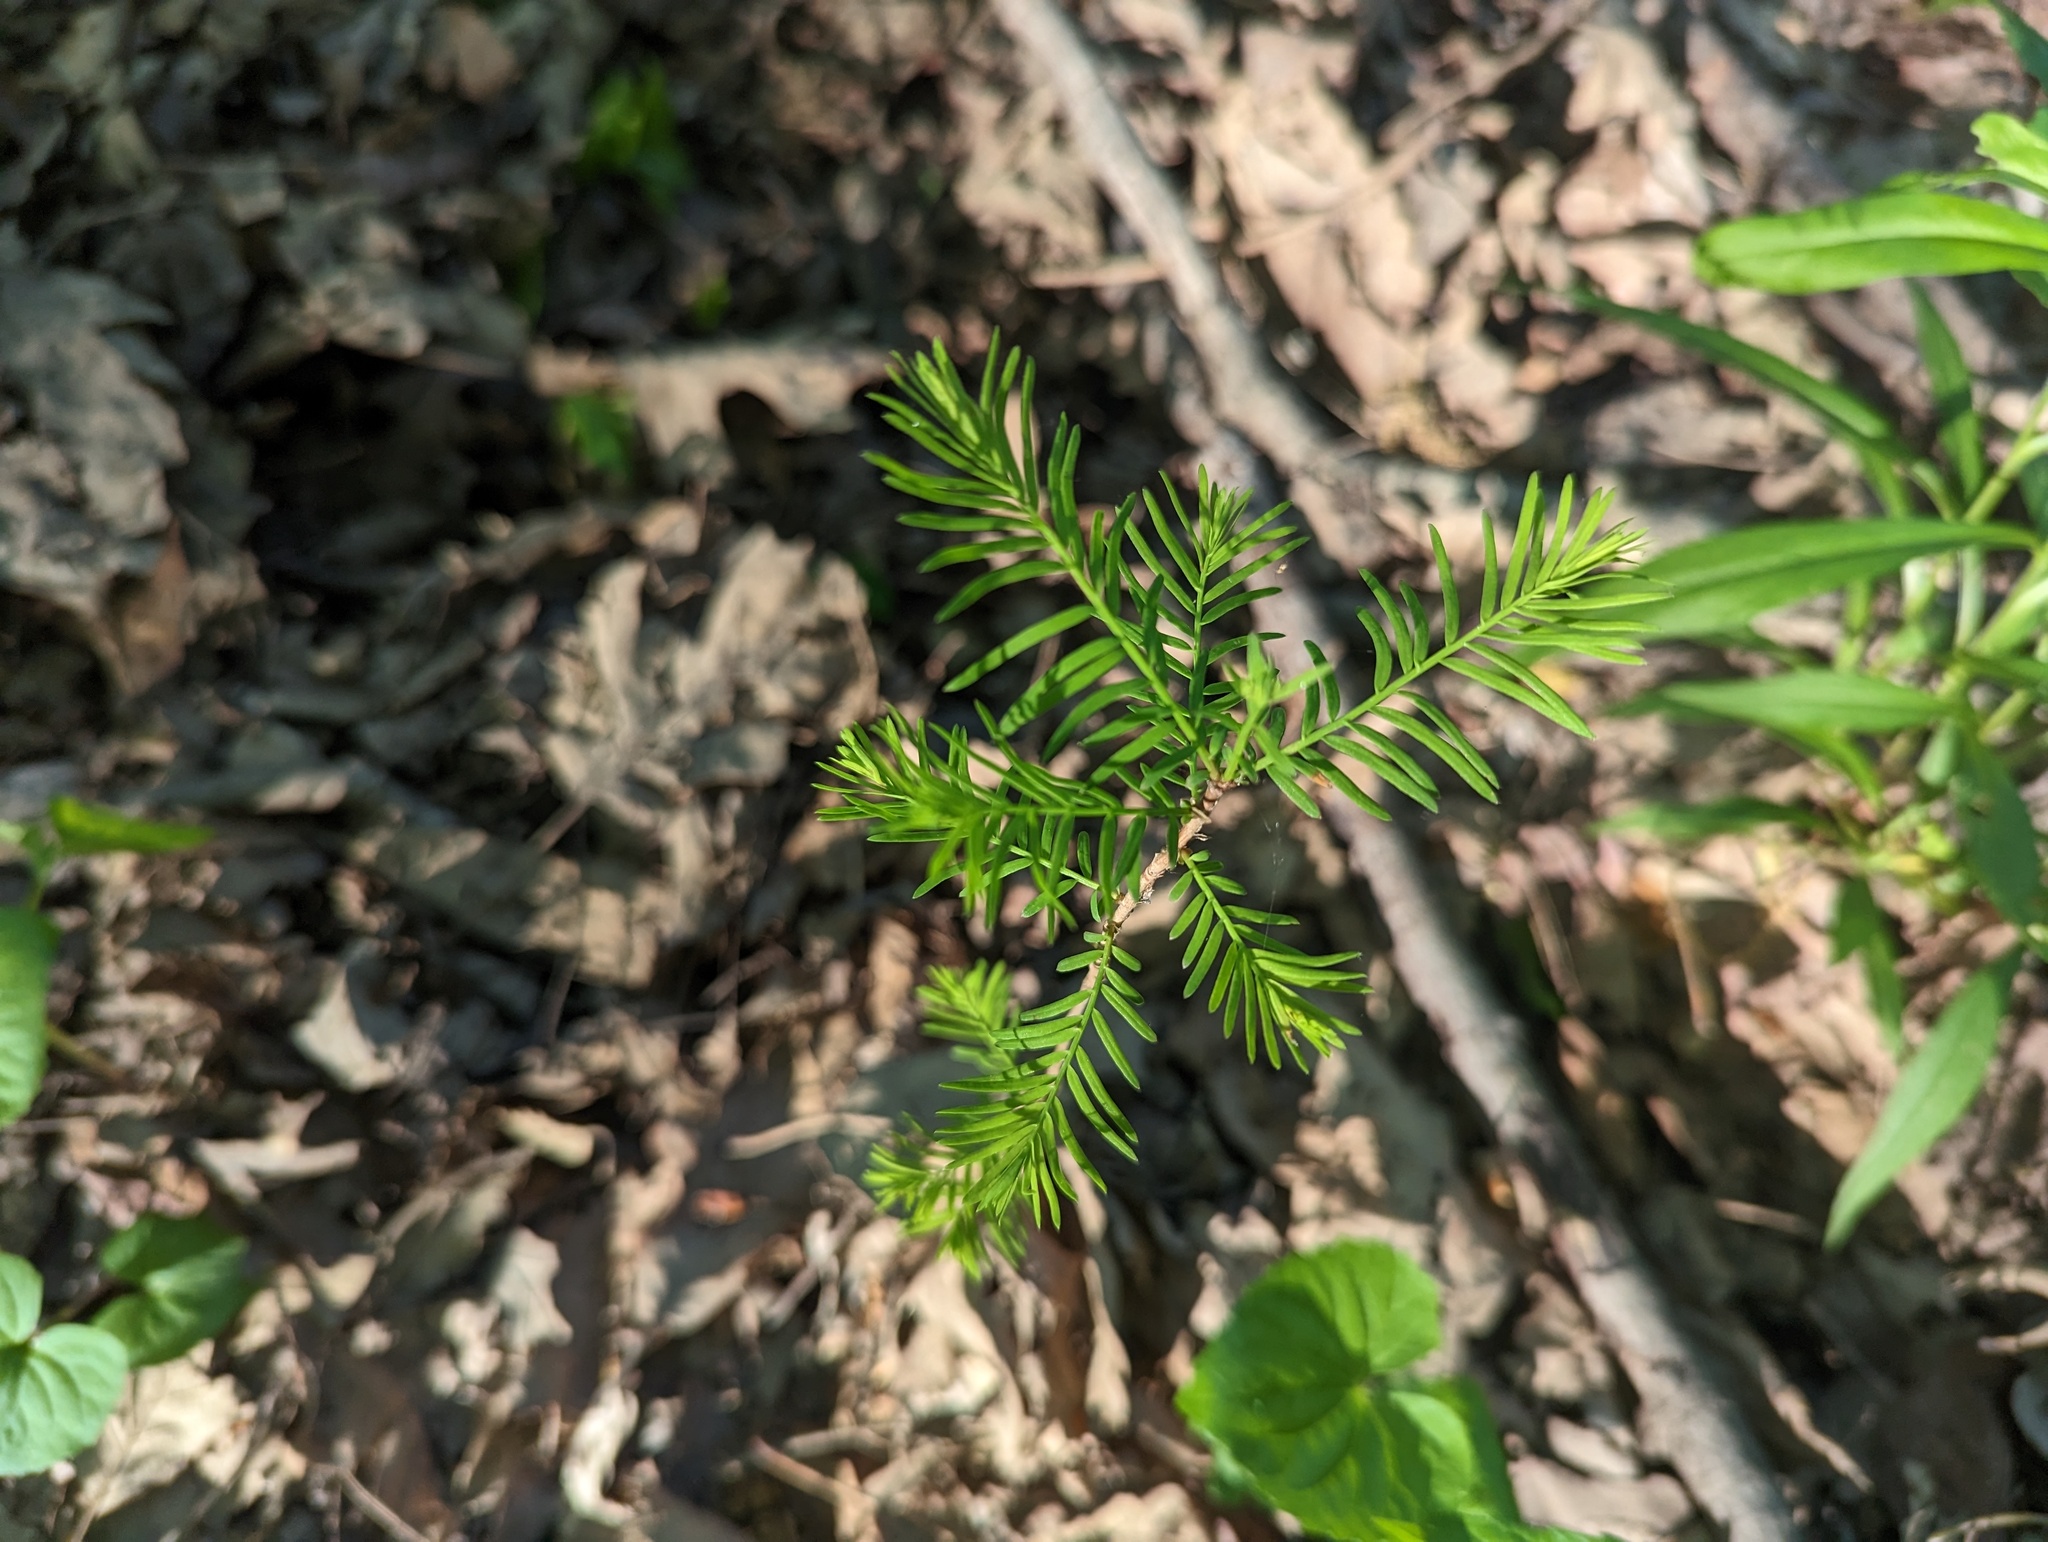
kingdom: Plantae
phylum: Tracheophyta
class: Pinopsida
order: Pinales
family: Cupressaceae
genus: Taxodium
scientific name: Taxodium distichum
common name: Bald cypress
